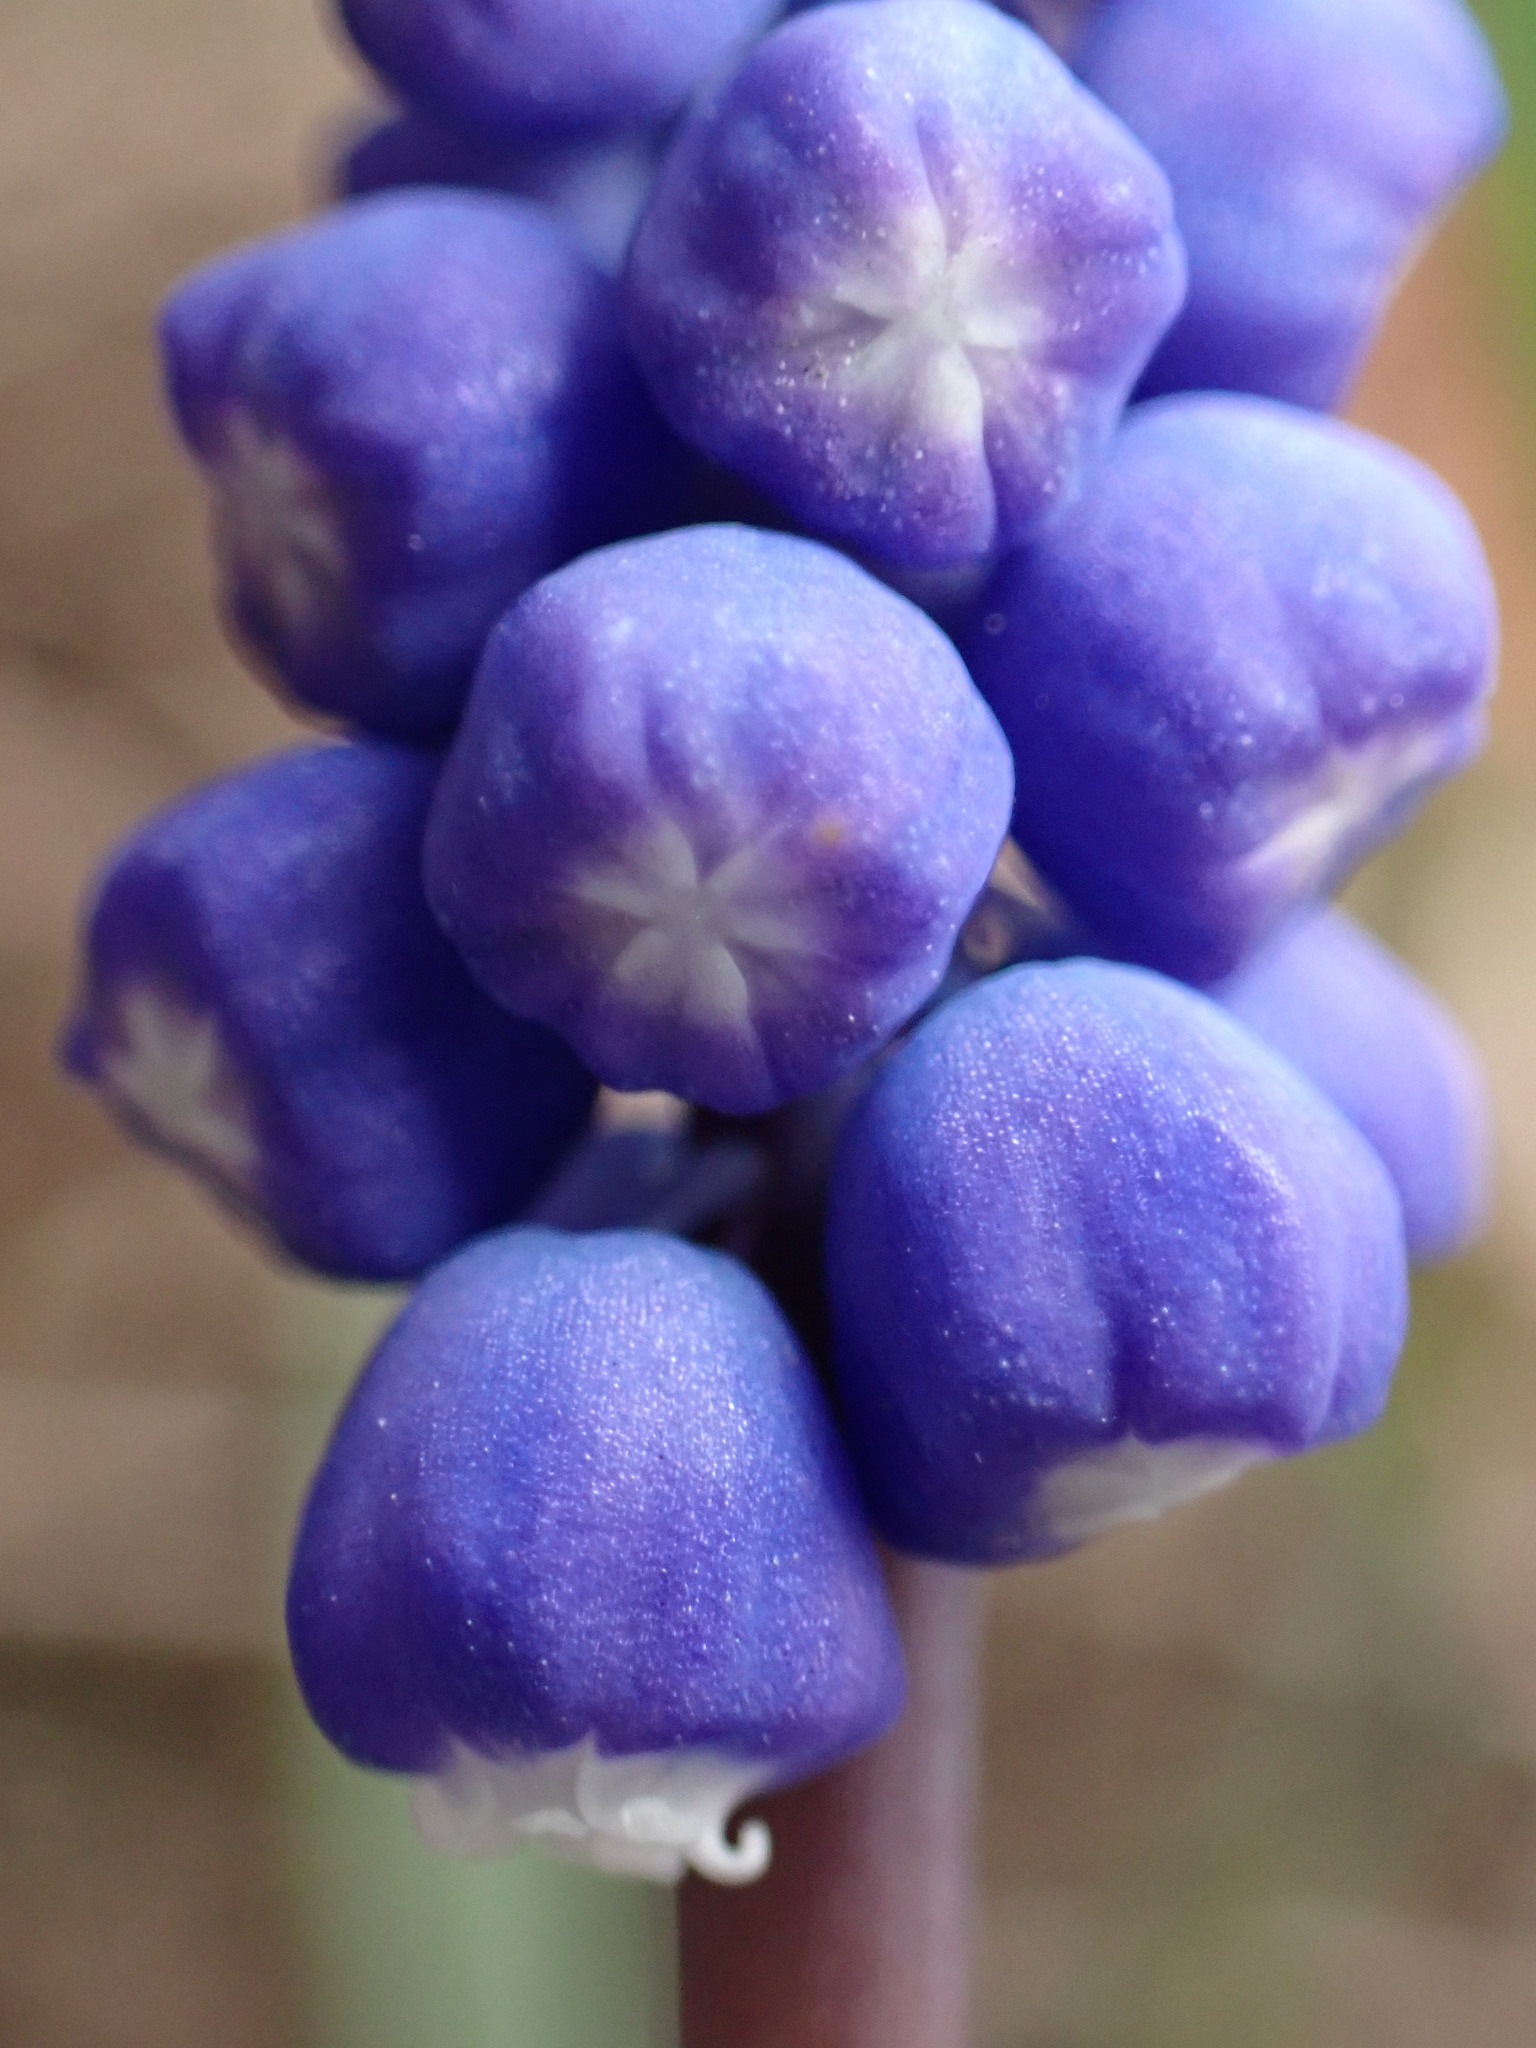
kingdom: Plantae
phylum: Tracheophyta
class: Liliopsida
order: Asparagales
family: Asparagaceae
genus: Muscari
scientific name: Muscari botryoides
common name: Compact grape-hyacinth
